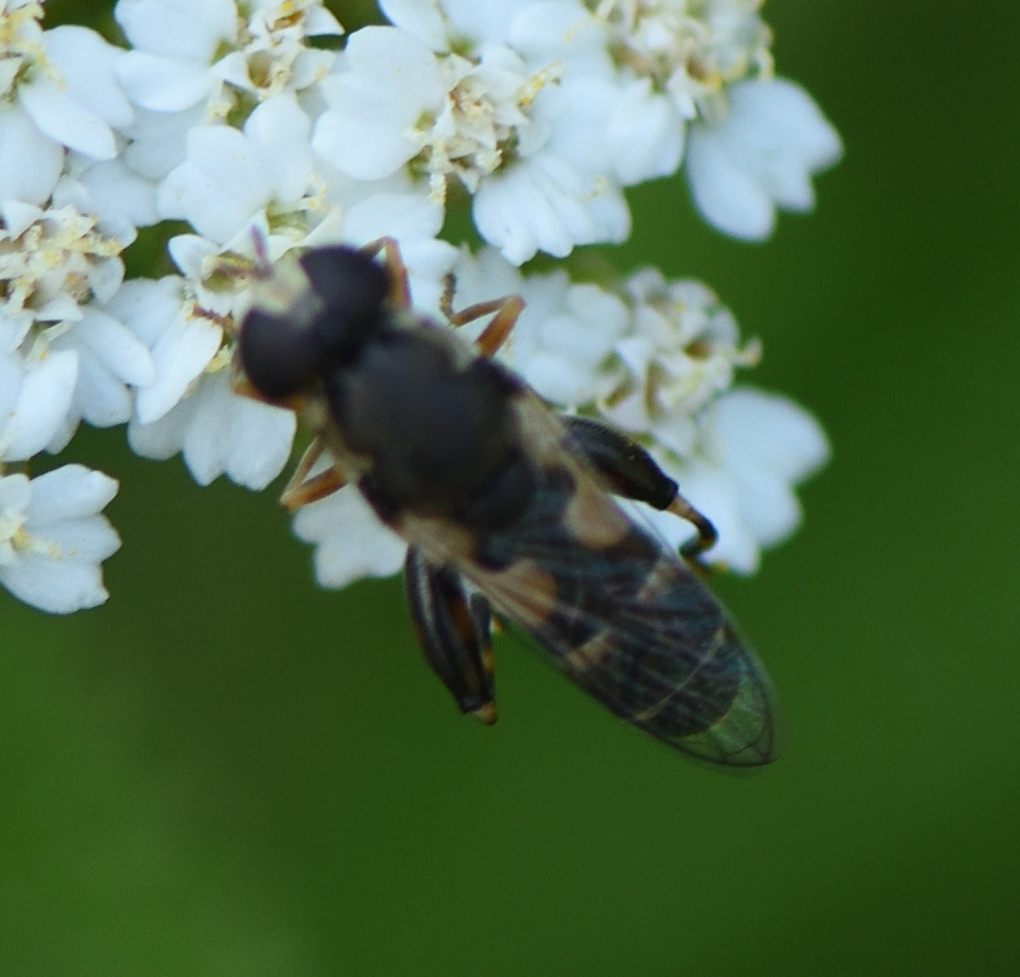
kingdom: Animalia
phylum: Arthropoda
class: Insecta
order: Diptera
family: Syrphidae
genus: Syritta
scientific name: Syritta pipiens
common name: Hover fly
